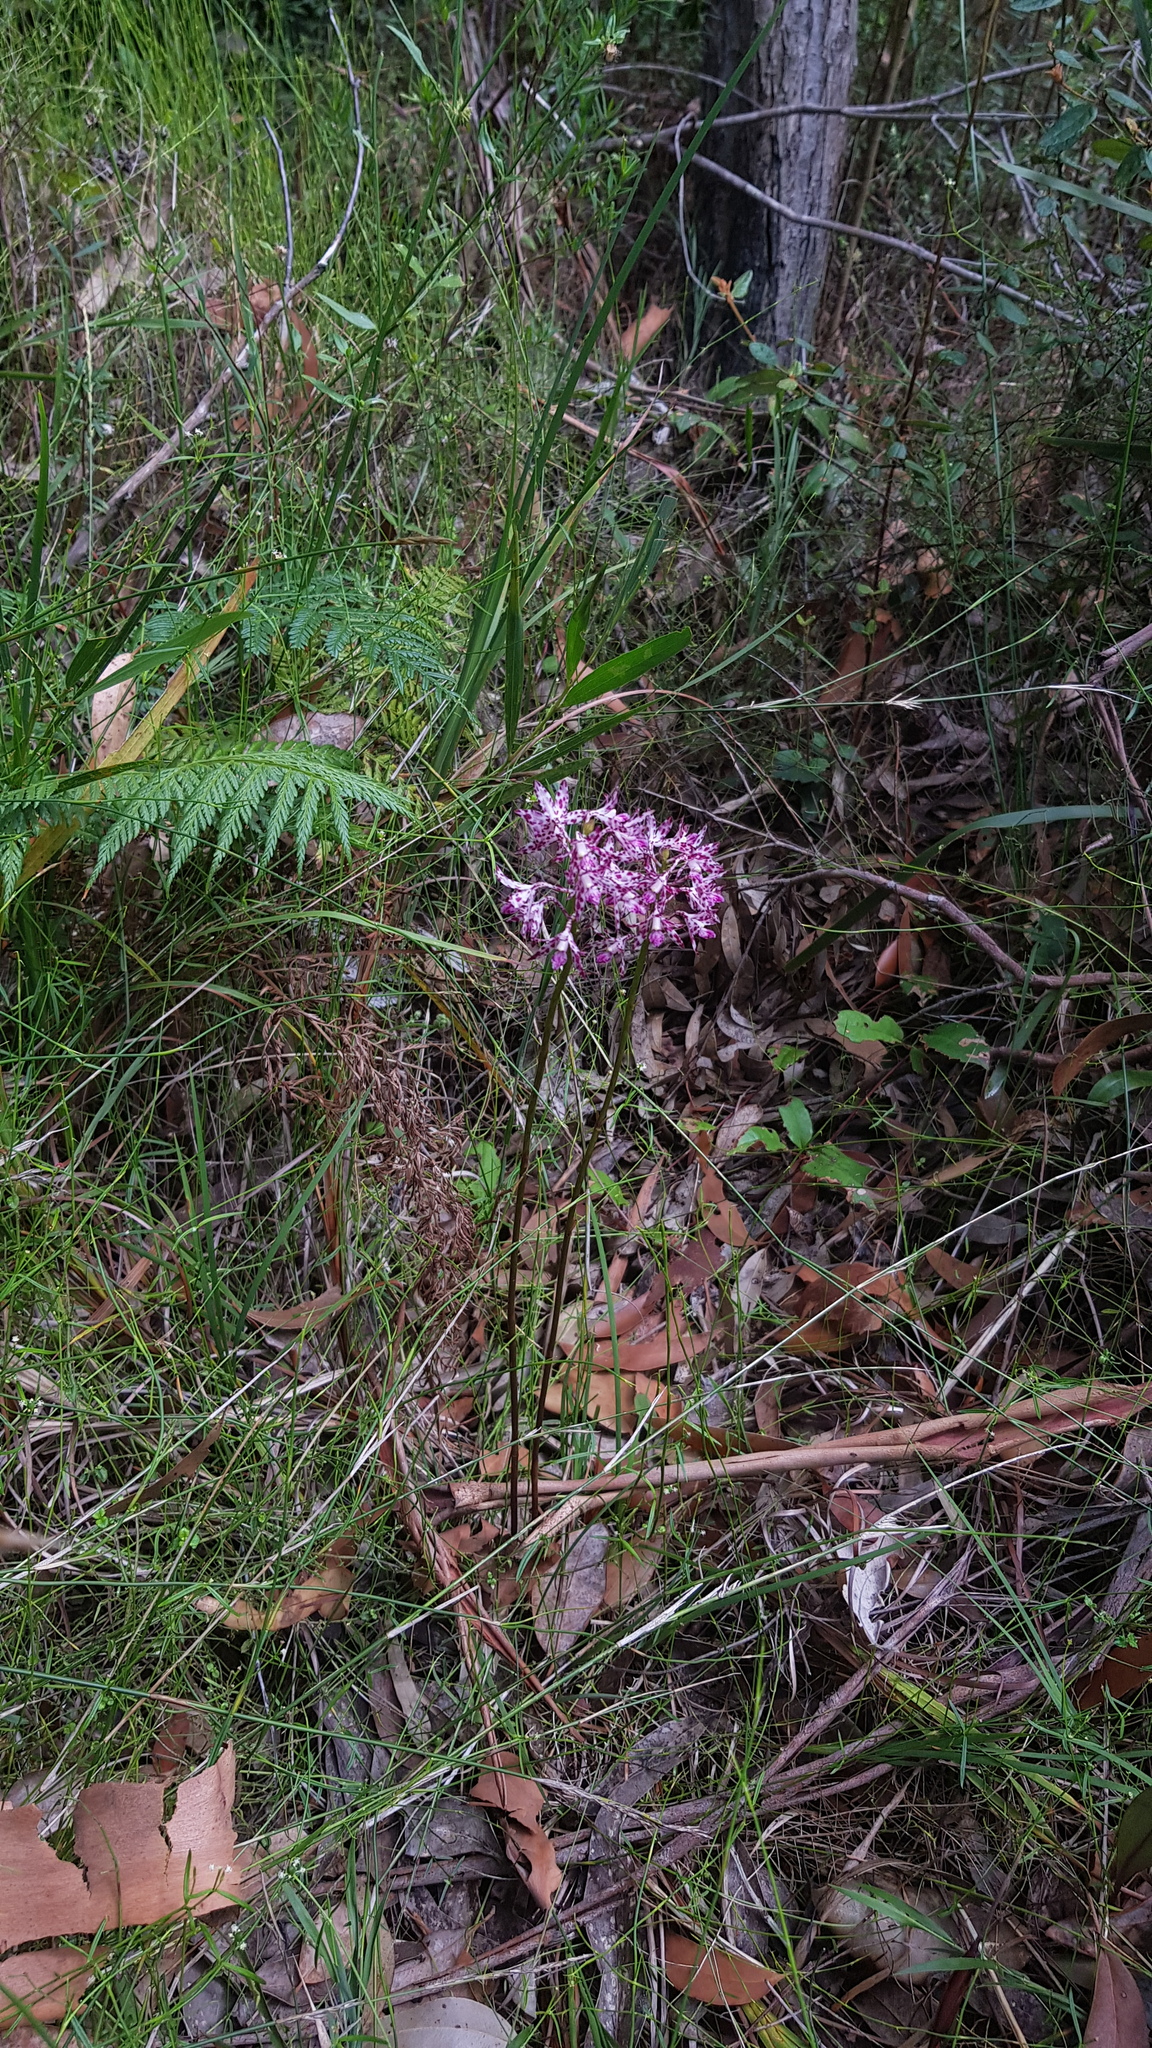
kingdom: Plantae
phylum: Tracheophyta
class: Liliopsida
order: Asparagales
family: Orchidaceae
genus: Dipodium
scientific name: Dipodium variegatum
